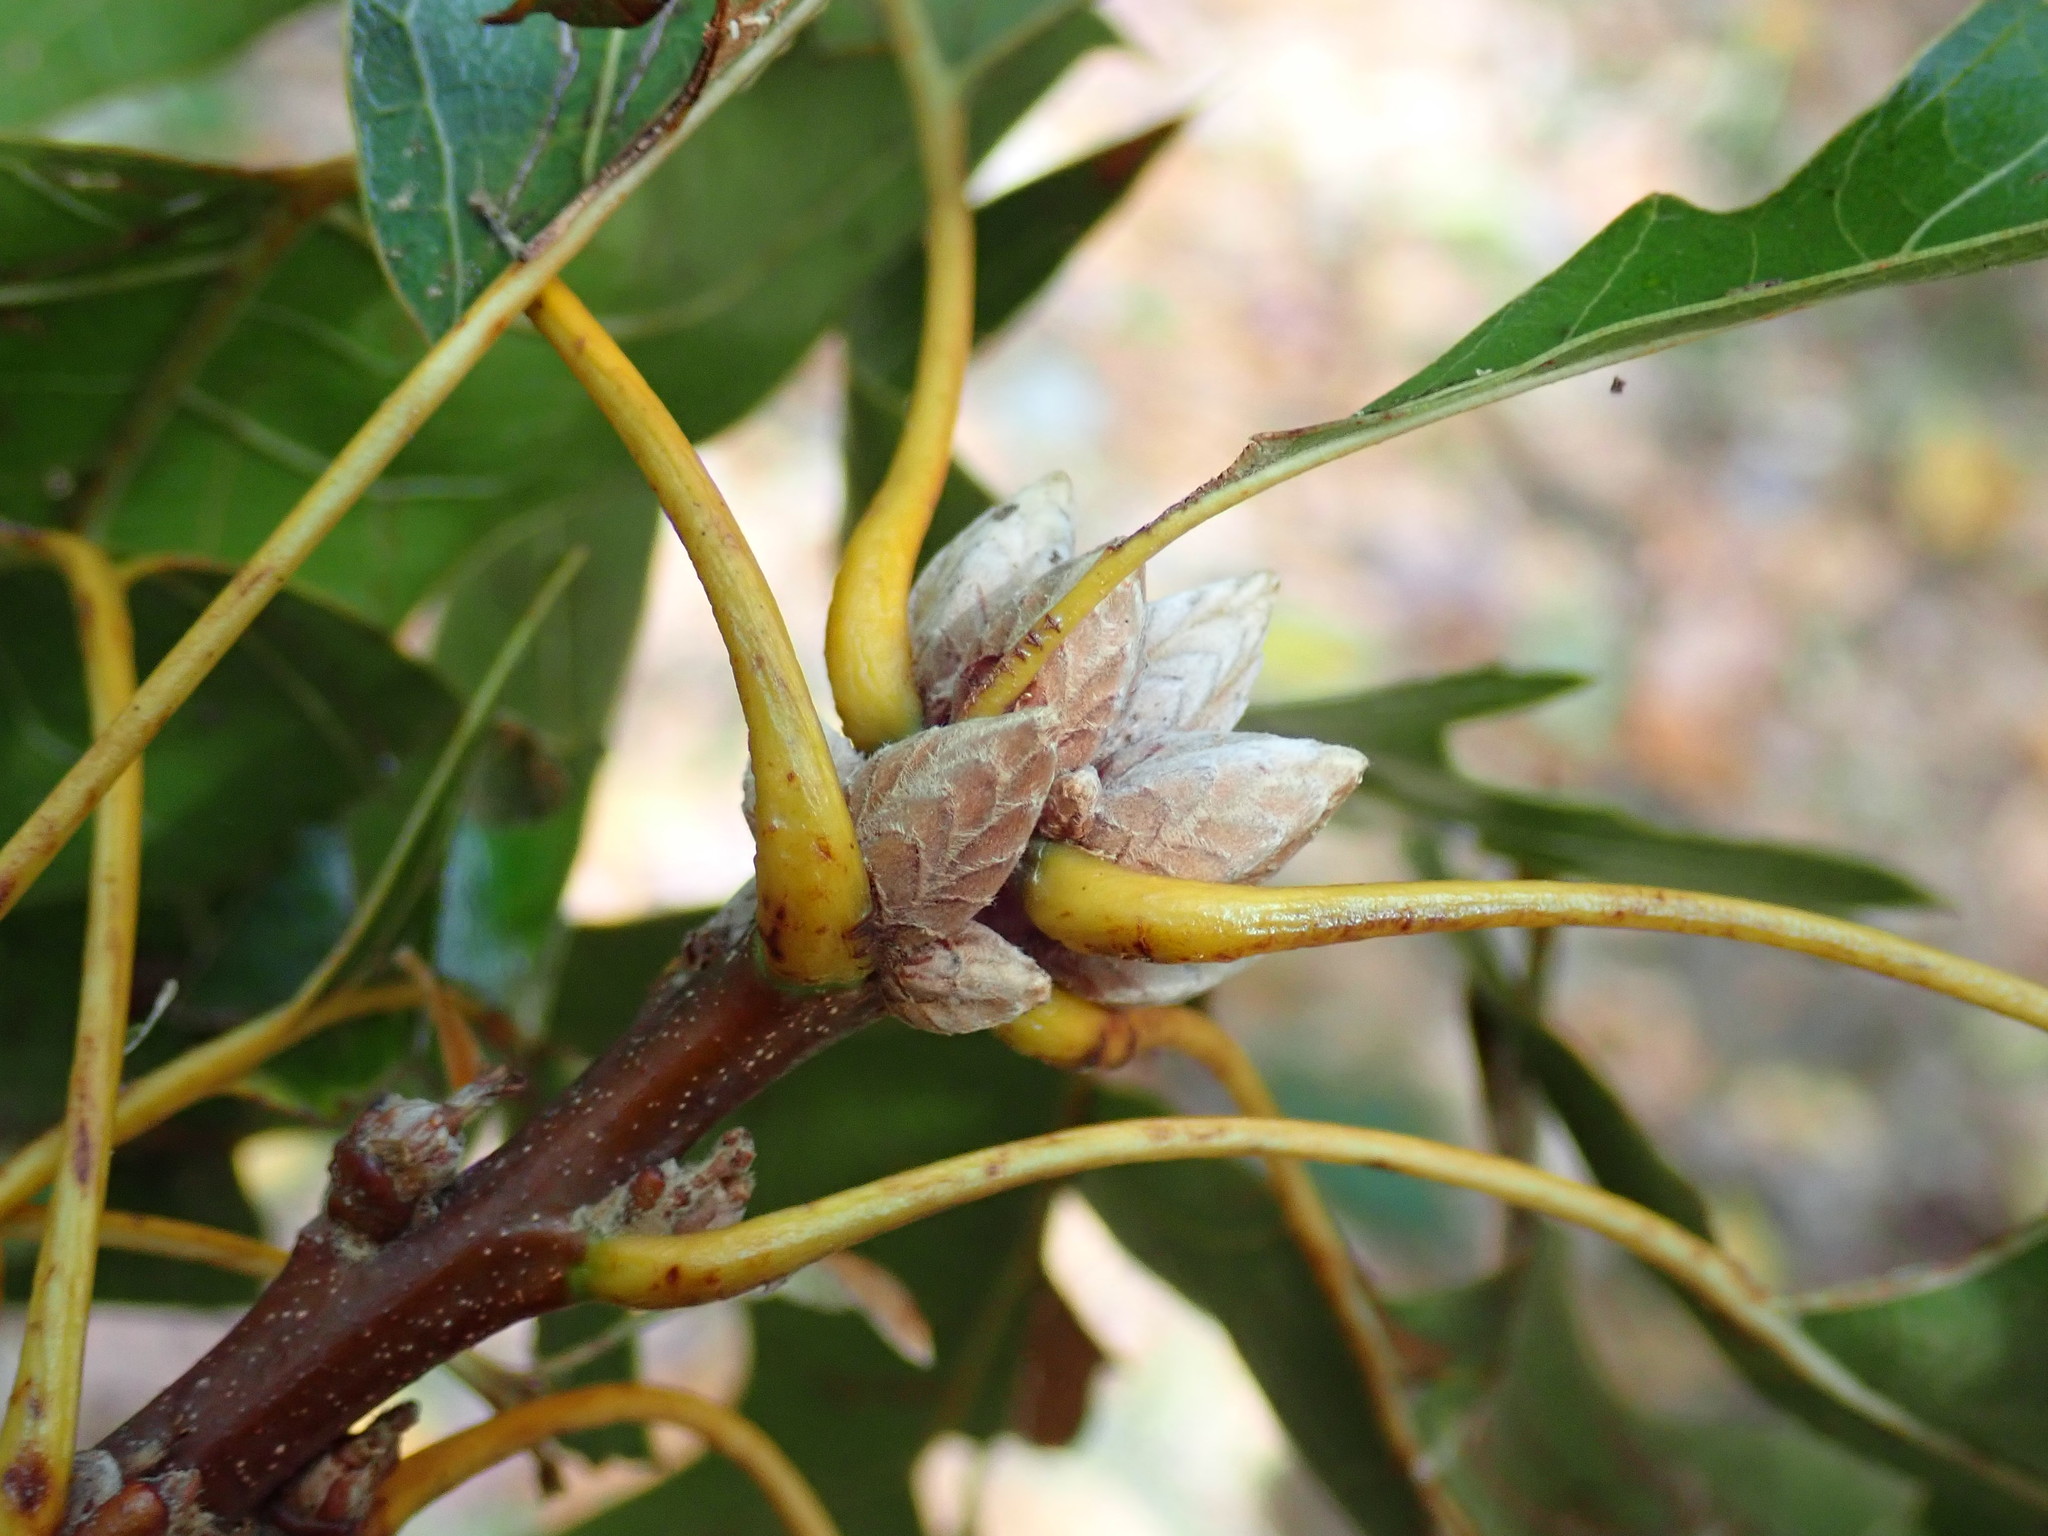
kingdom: Plantae
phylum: Tracheophyta
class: Magnoliopsida
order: Fagales
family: Fagaceae
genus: Quercus
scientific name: Quercus velutina
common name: Black oak
